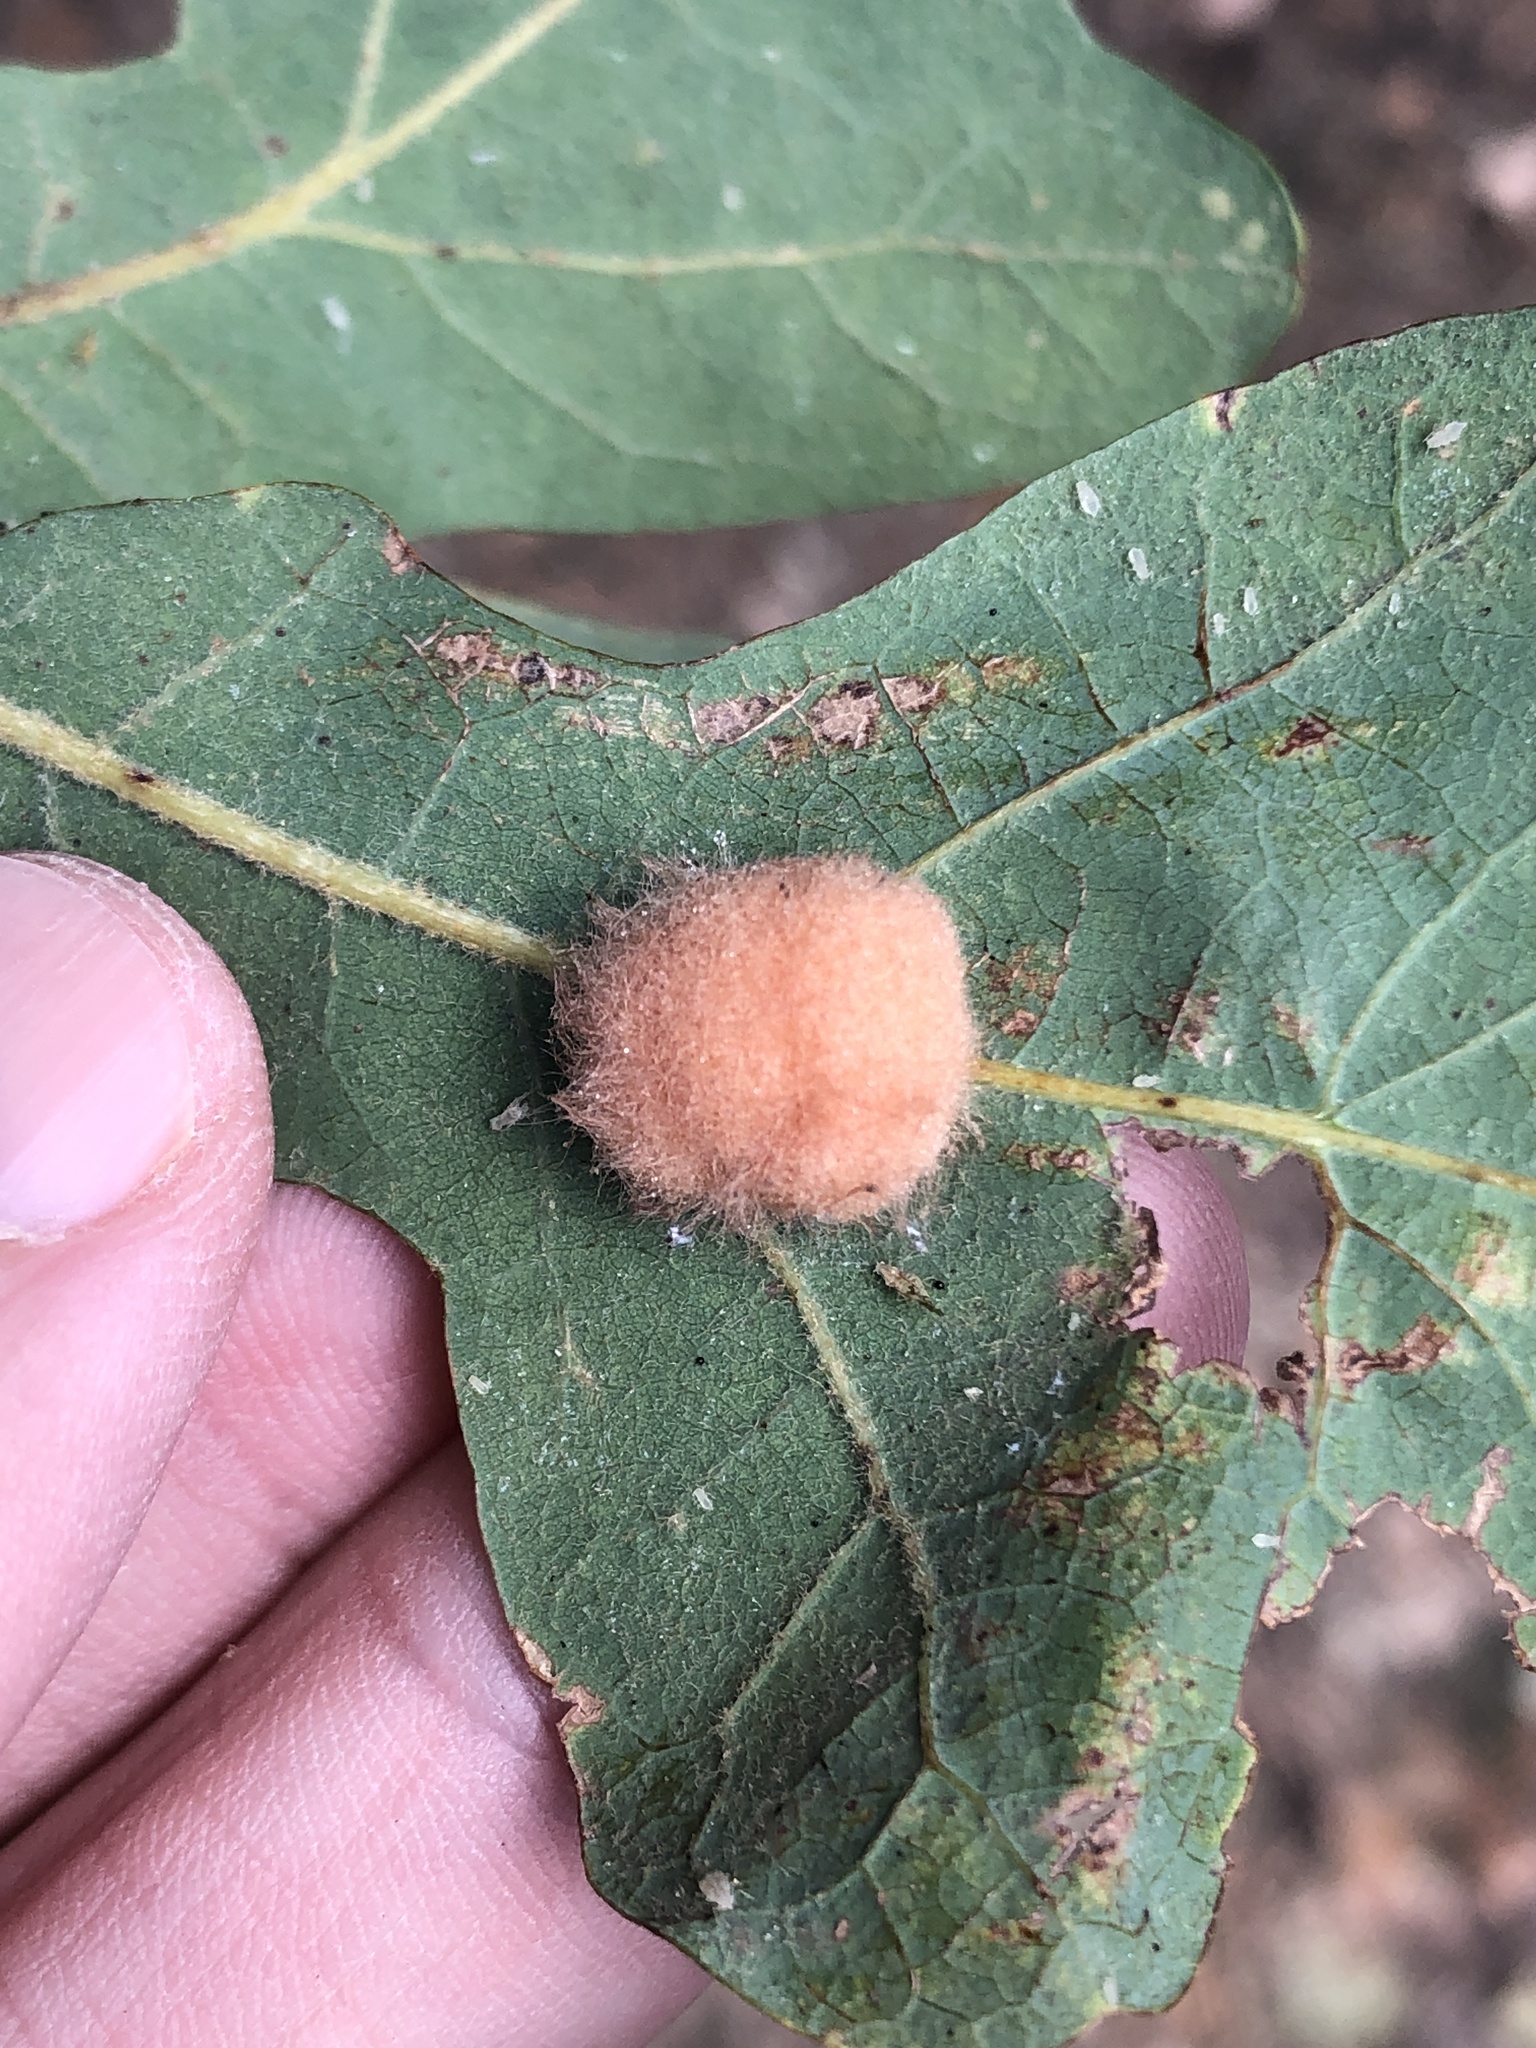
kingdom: Animalia
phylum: Arthropoda
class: Insecta
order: Hymenoptera
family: Cynipidae
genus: Andricus
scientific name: Andricus Druon pattoni
